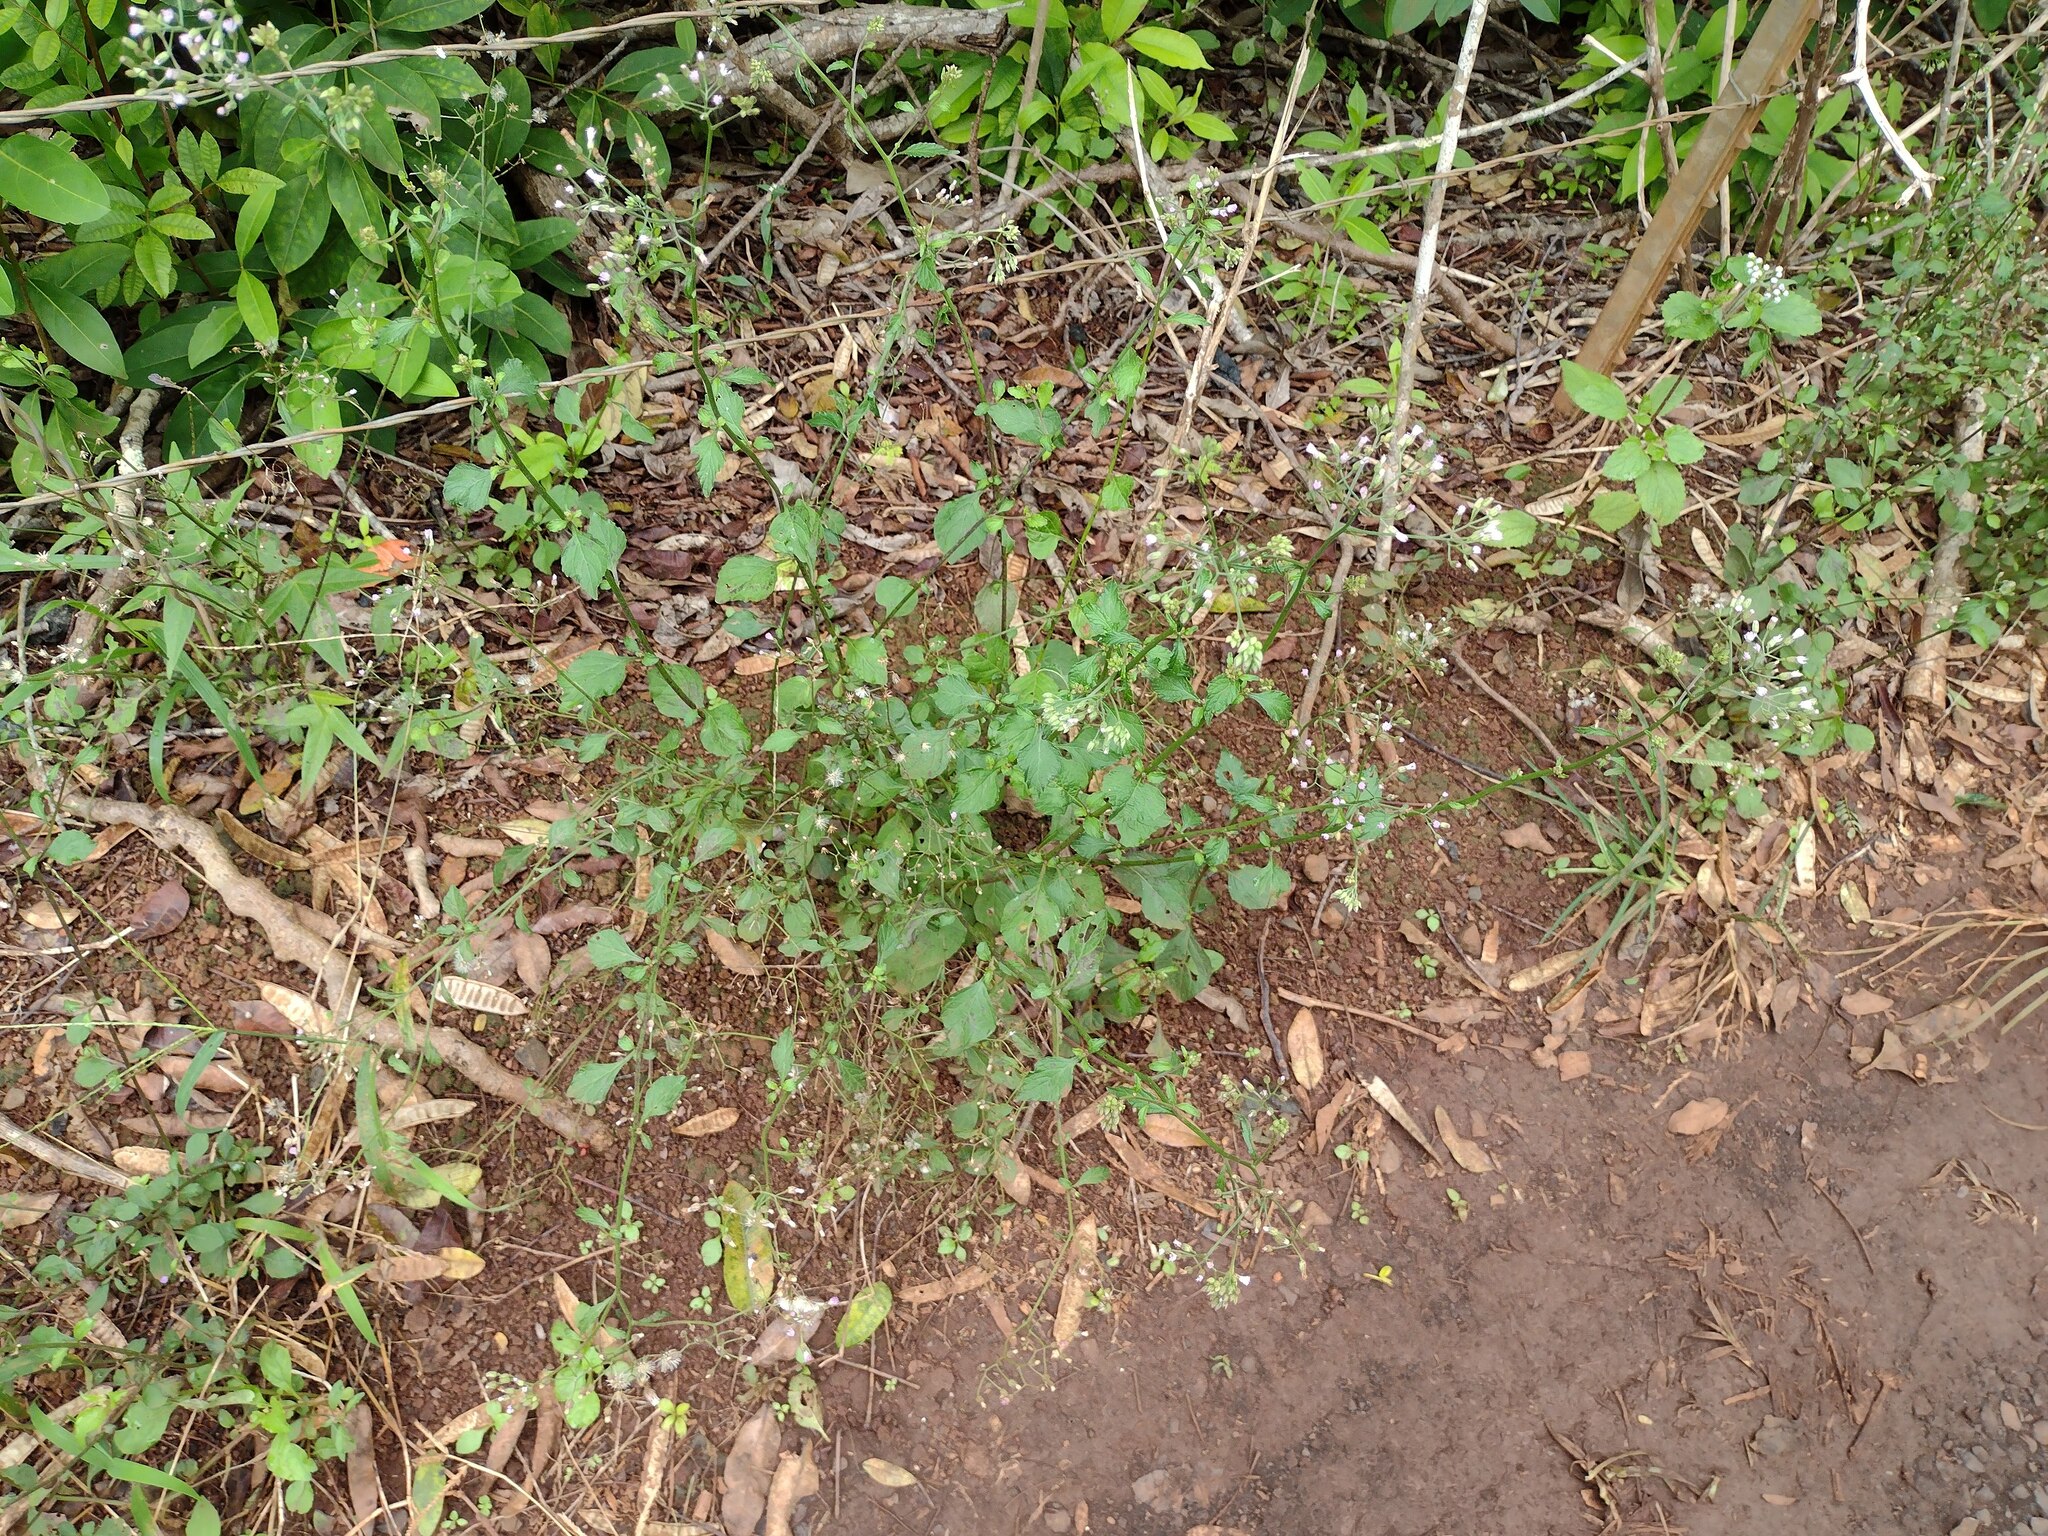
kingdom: Plantae
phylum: Tracheophyta
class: Magnoliopsida
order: Asterales
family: Asteraceae
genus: Cyanthillium
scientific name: Cyanthillium cinereum
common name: Little ironweed
